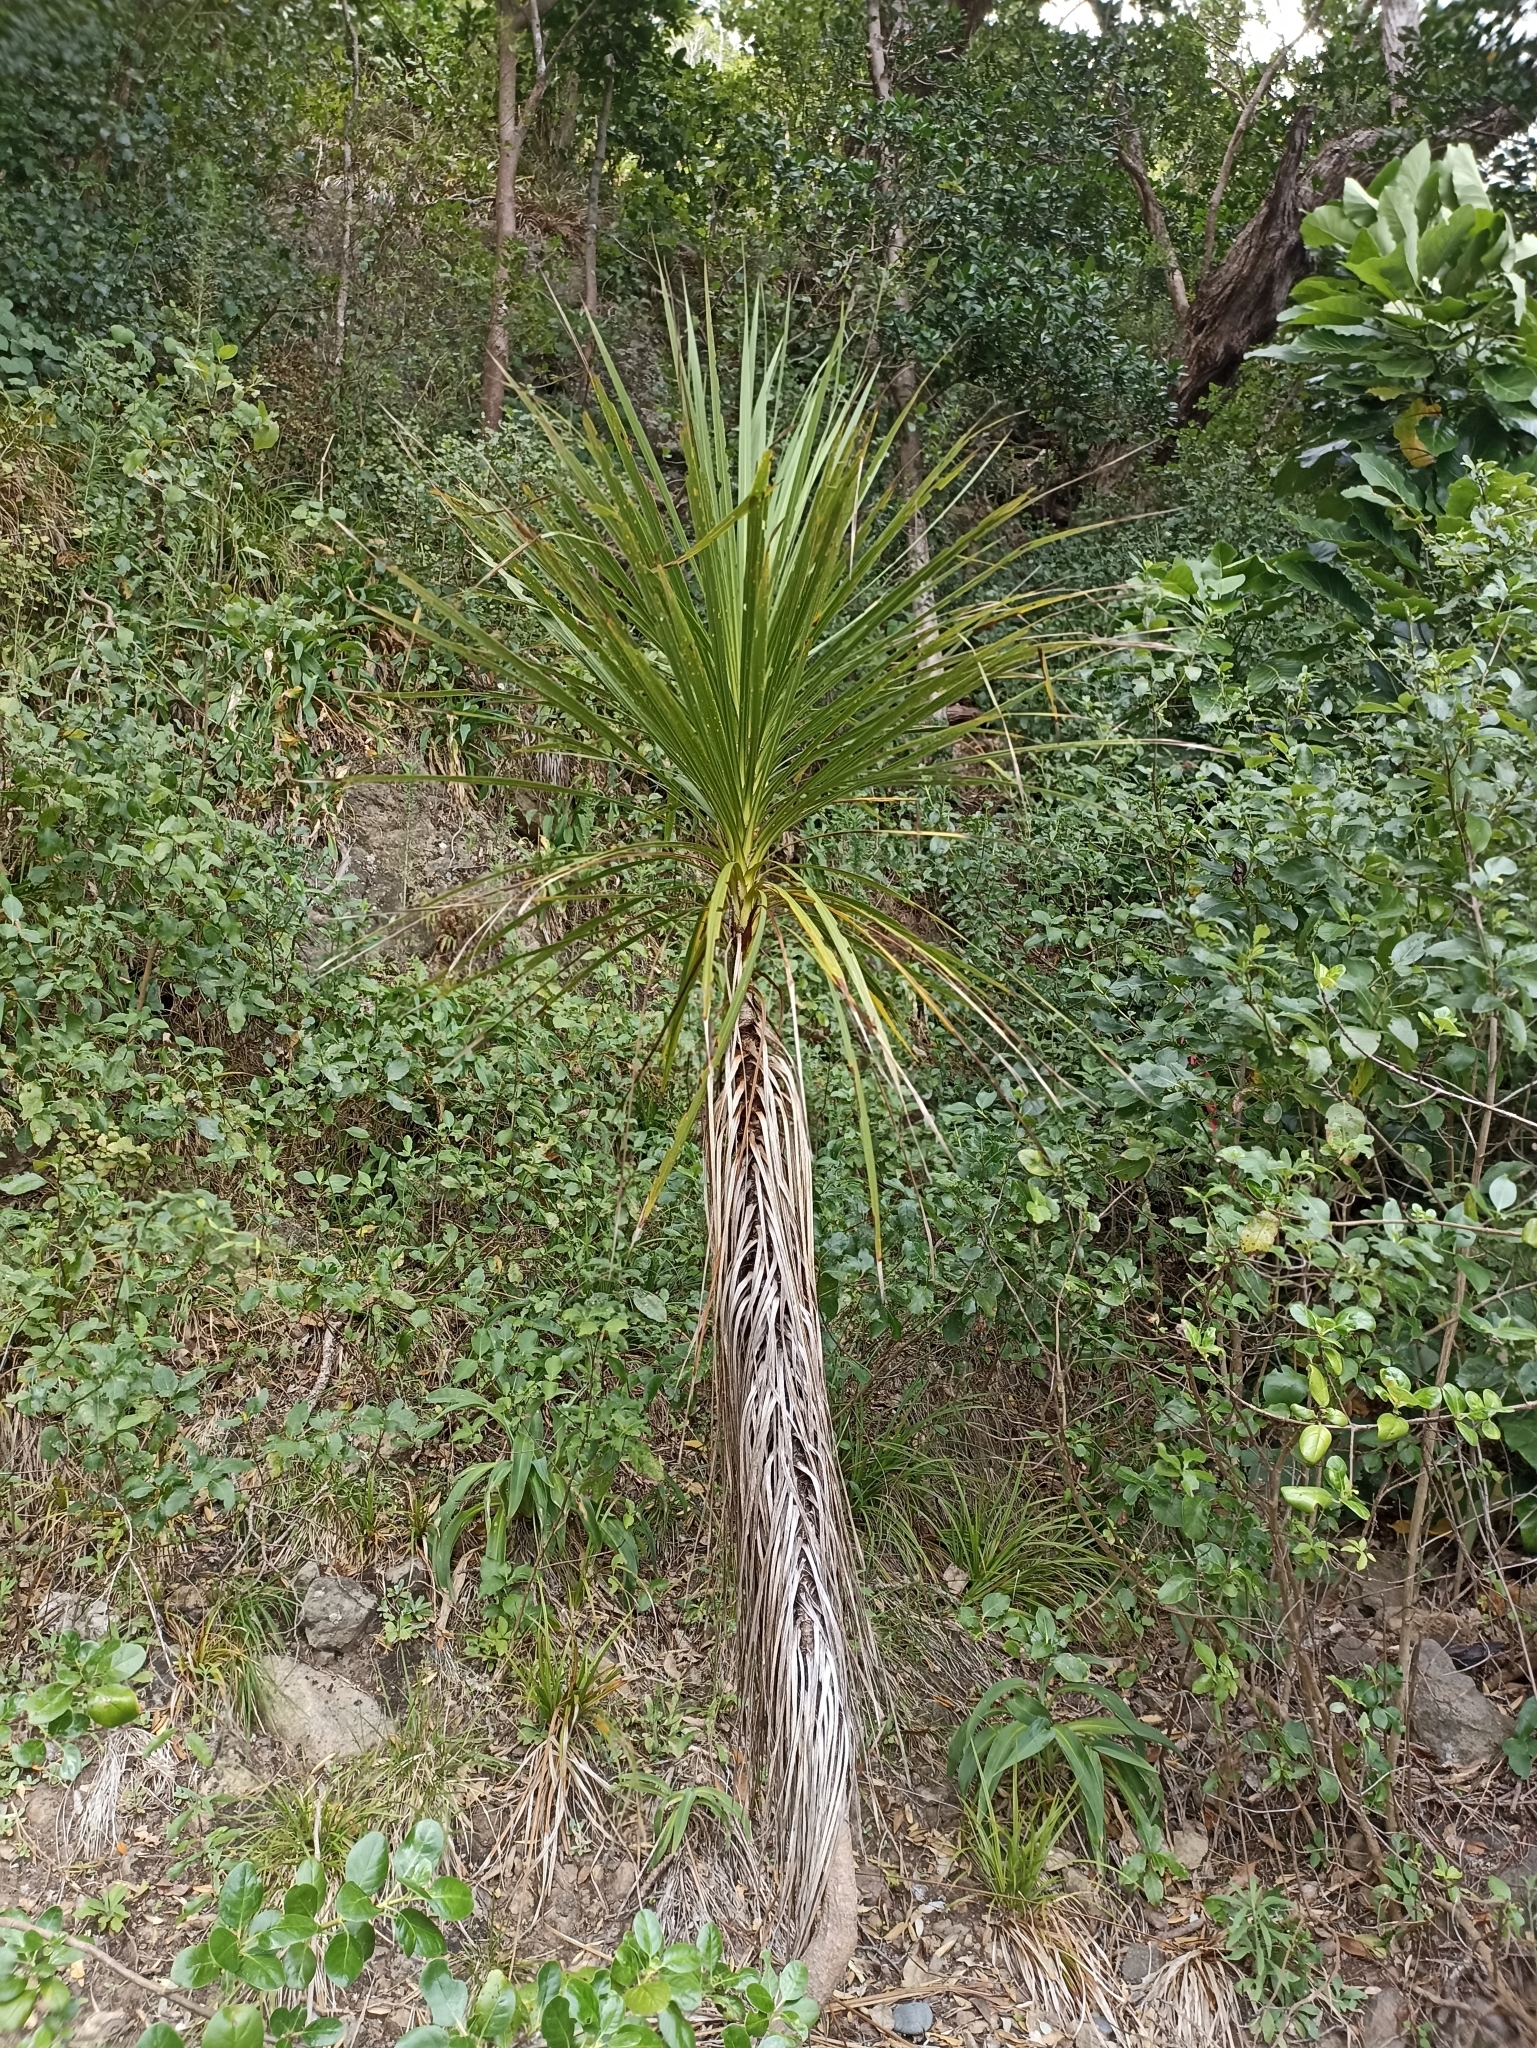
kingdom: Plantae
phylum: Tracheophyta
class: Liliopsida
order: Asparagales
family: Asparagaceae
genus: Cordyline
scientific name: Cordyline australis
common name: Cabbage-palm
